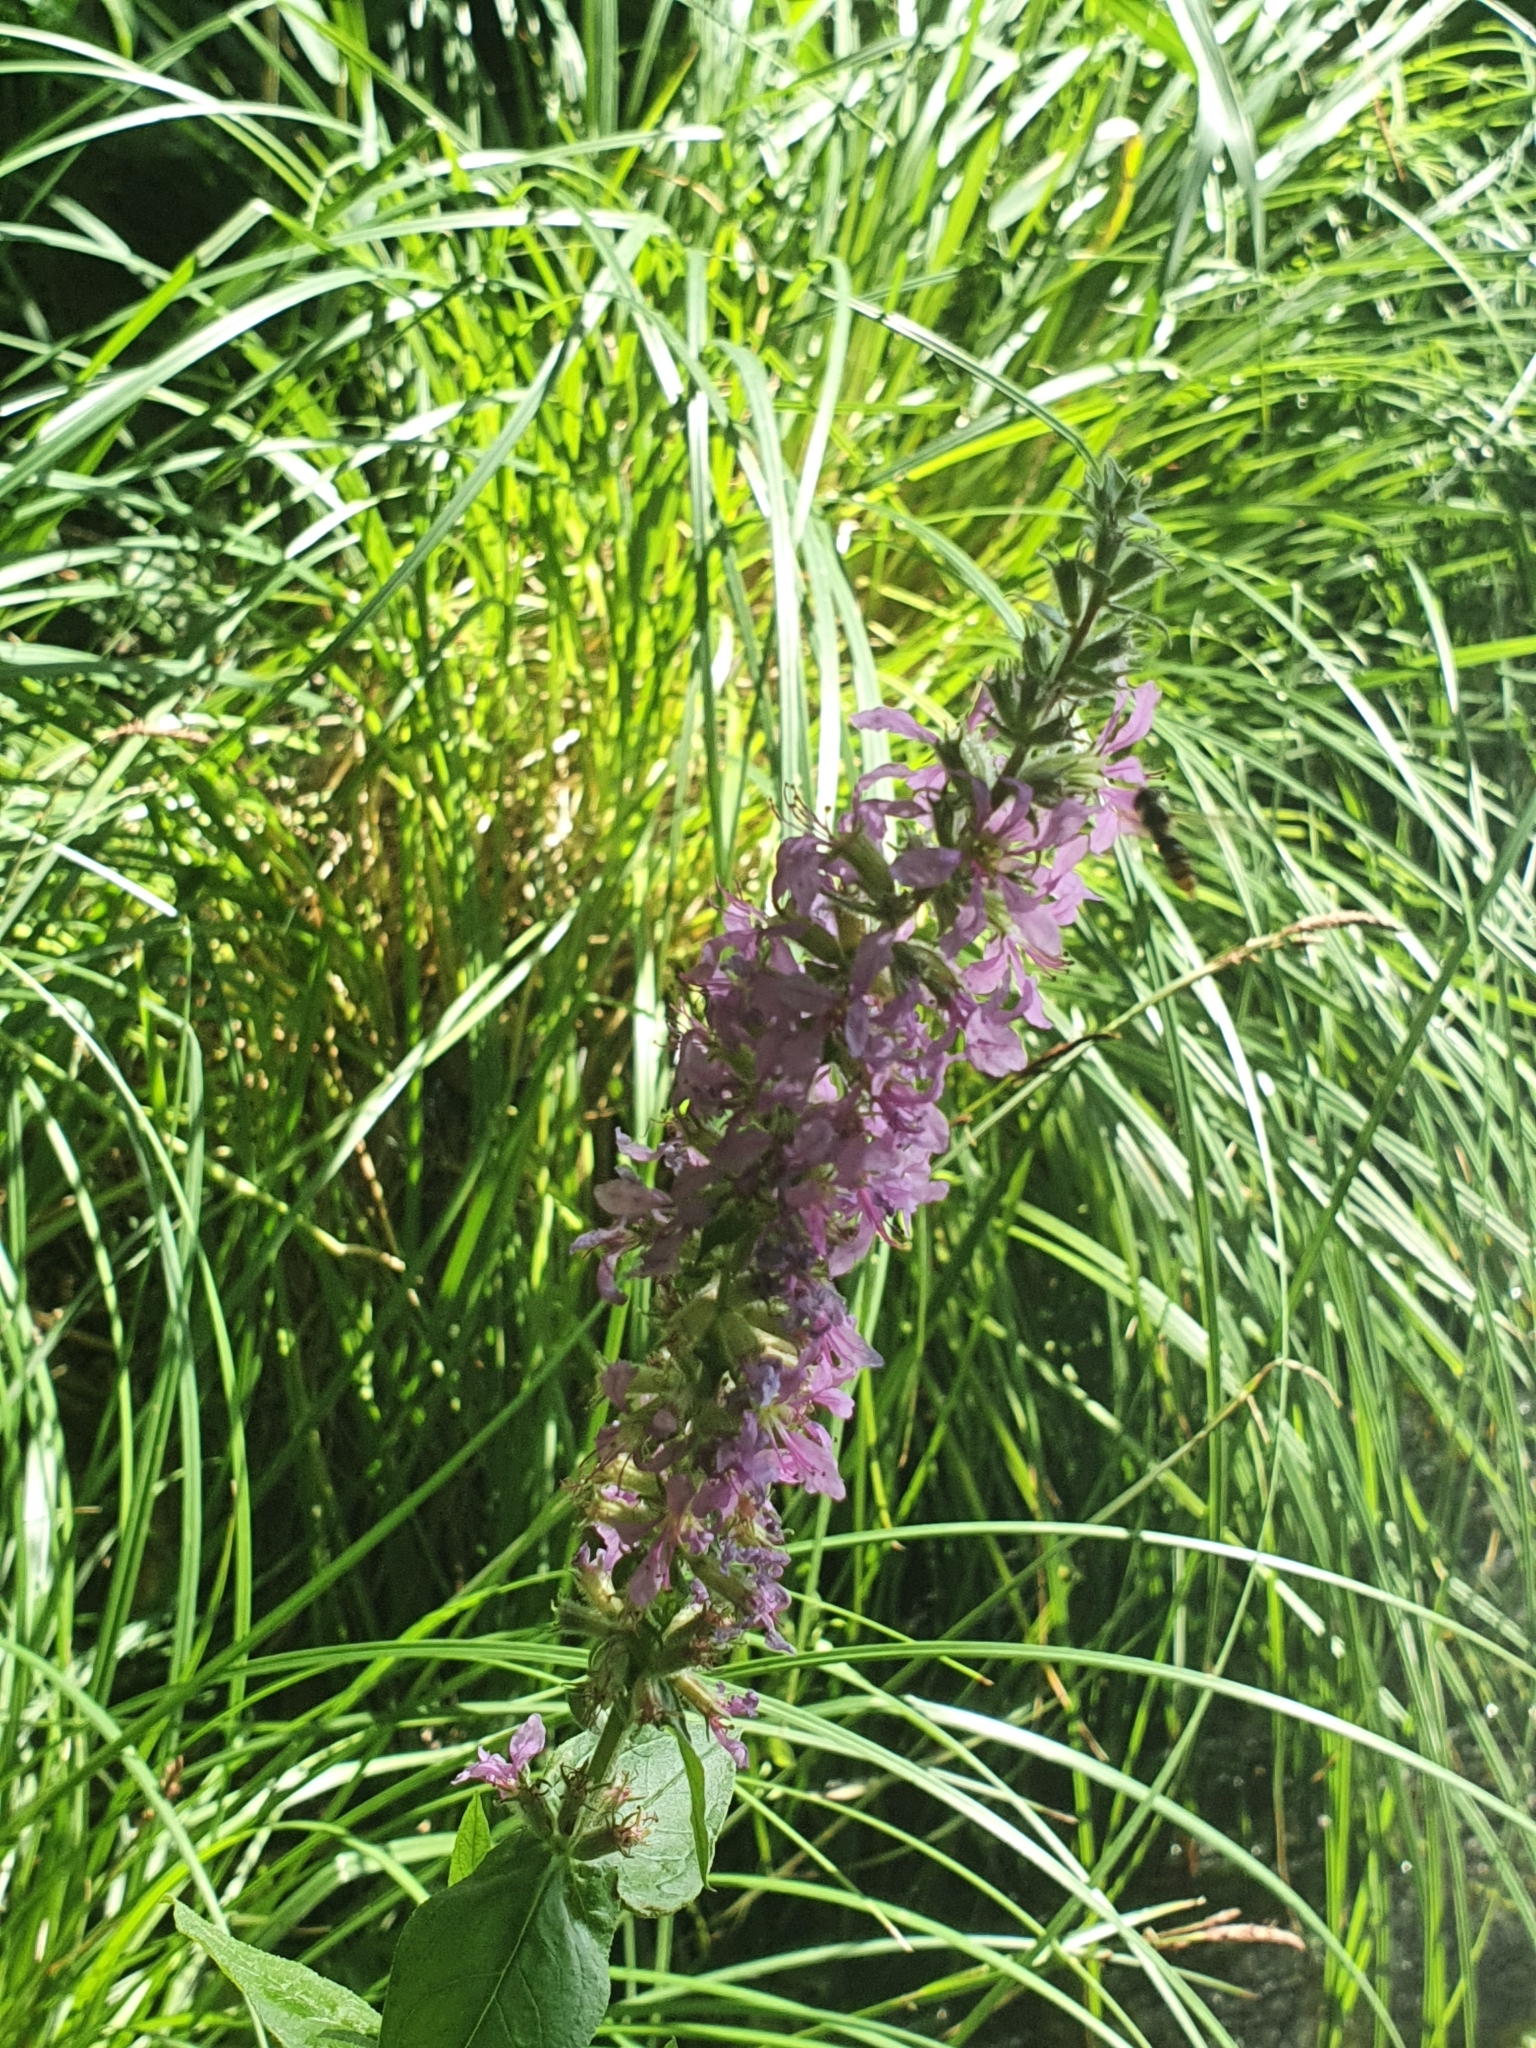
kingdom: Plantae
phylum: Tracheophyta
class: Magnoliopsida
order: Myrtales
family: Lythraceae
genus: Lythrum
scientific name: Lythrum salicaria
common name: Purple loosestrife
